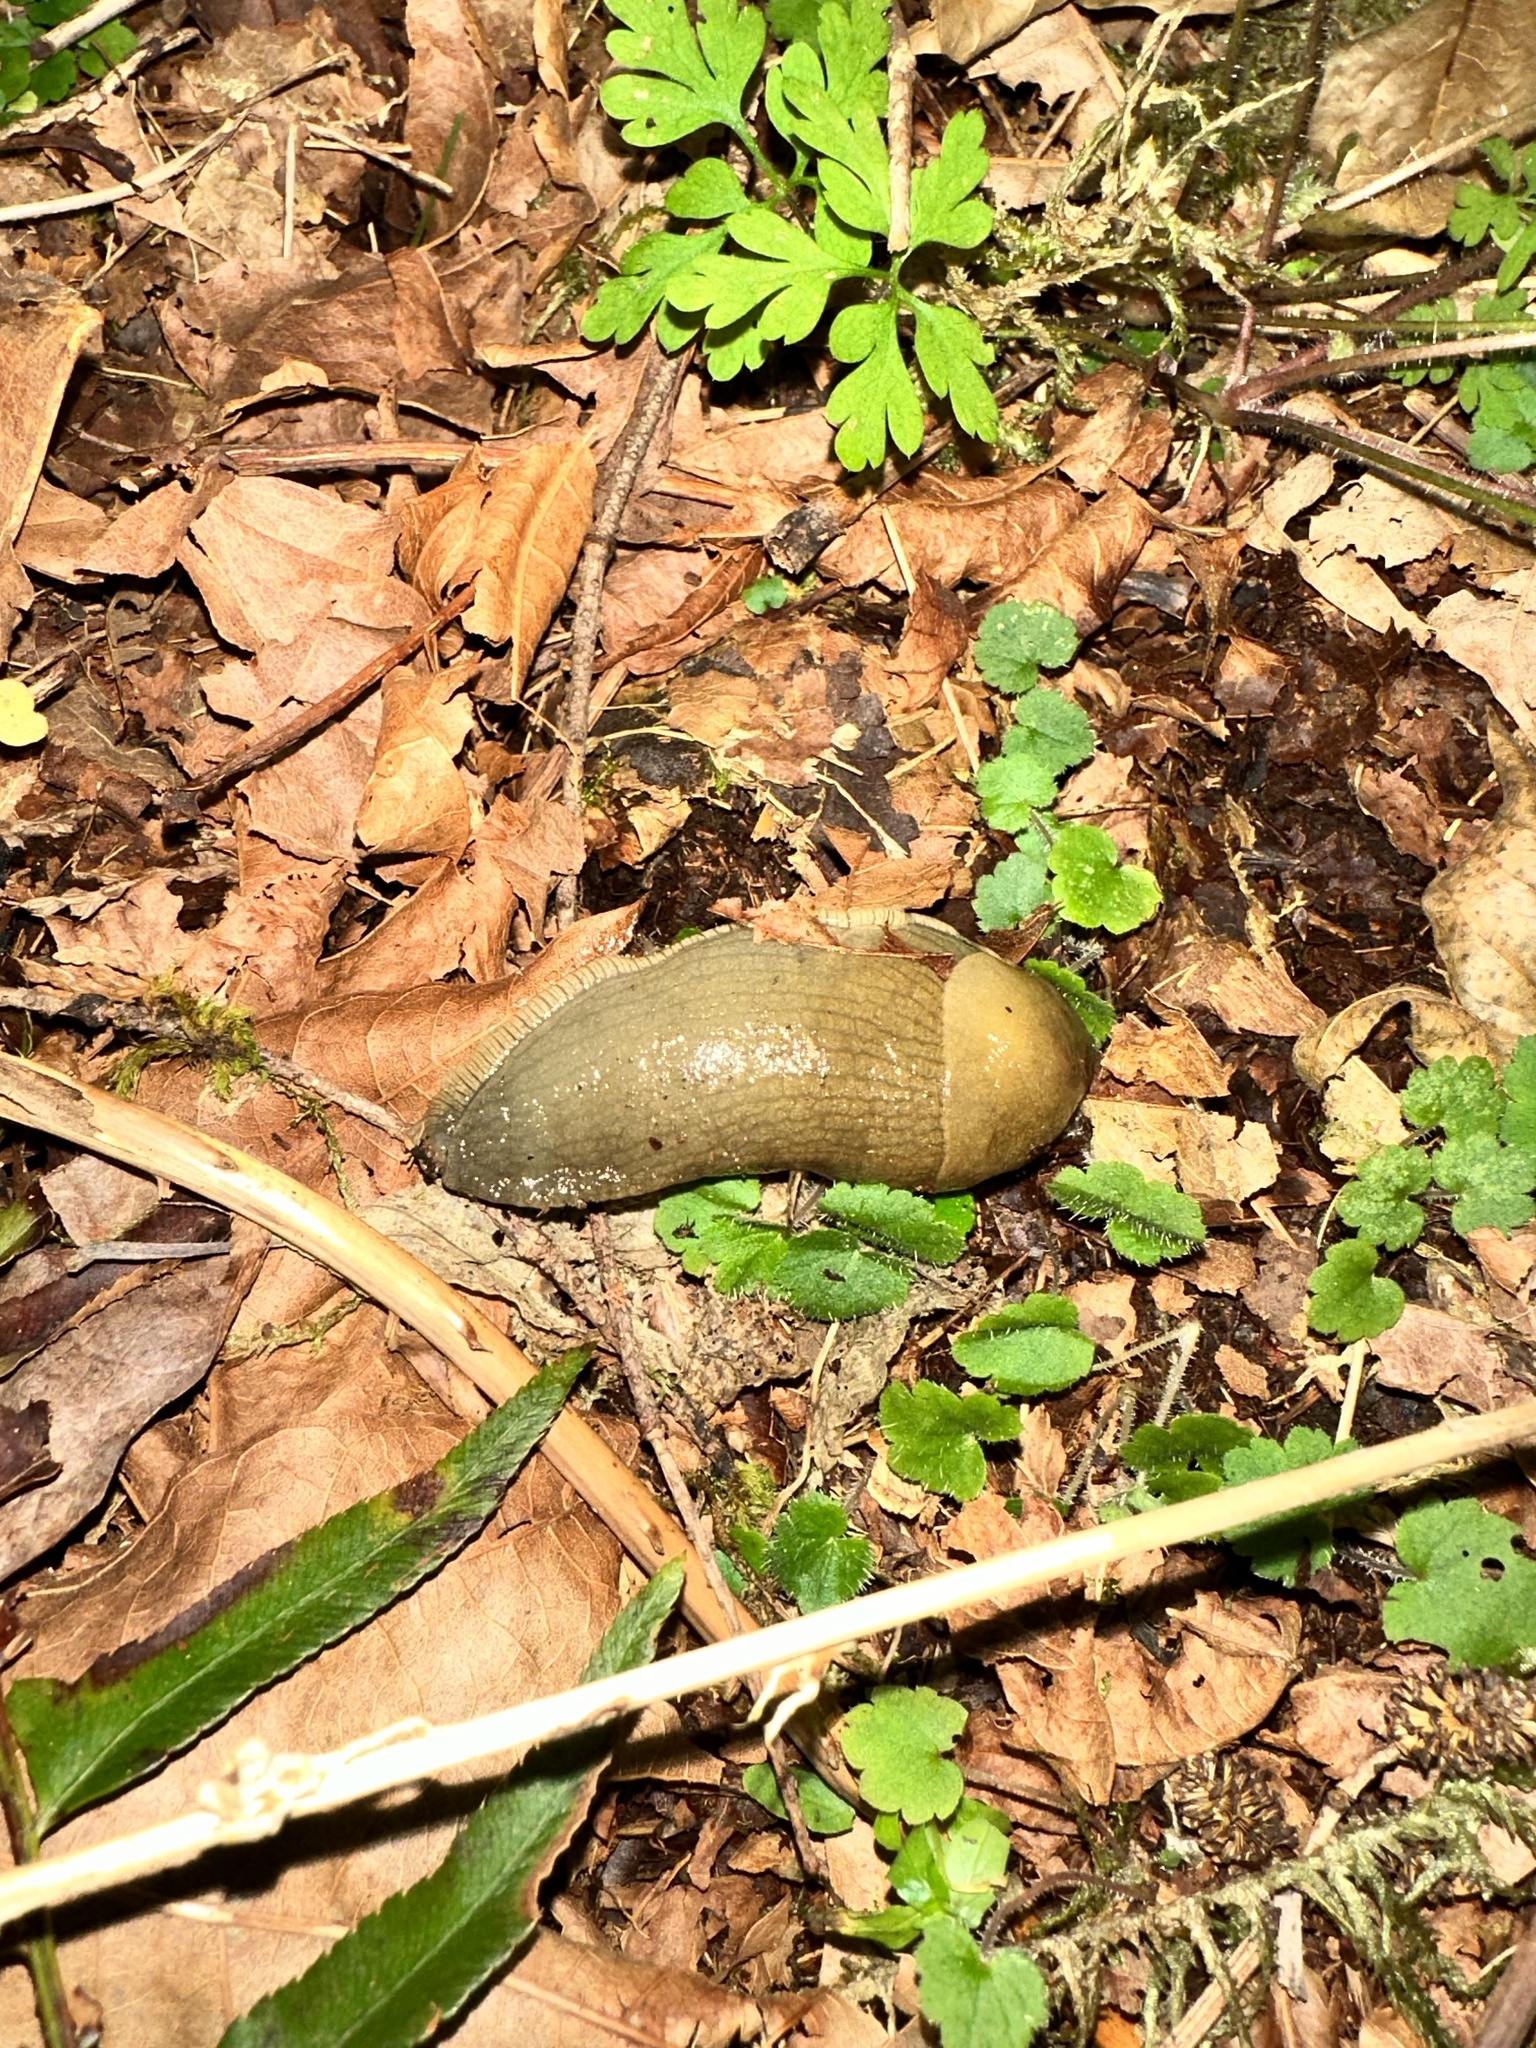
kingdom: Animalia
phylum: Mollusca
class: Gastropoda
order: Stylommatophora
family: Ariolimacidae
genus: Ariolimax
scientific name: Ariolimax columbianus
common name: Pacific banana slug
